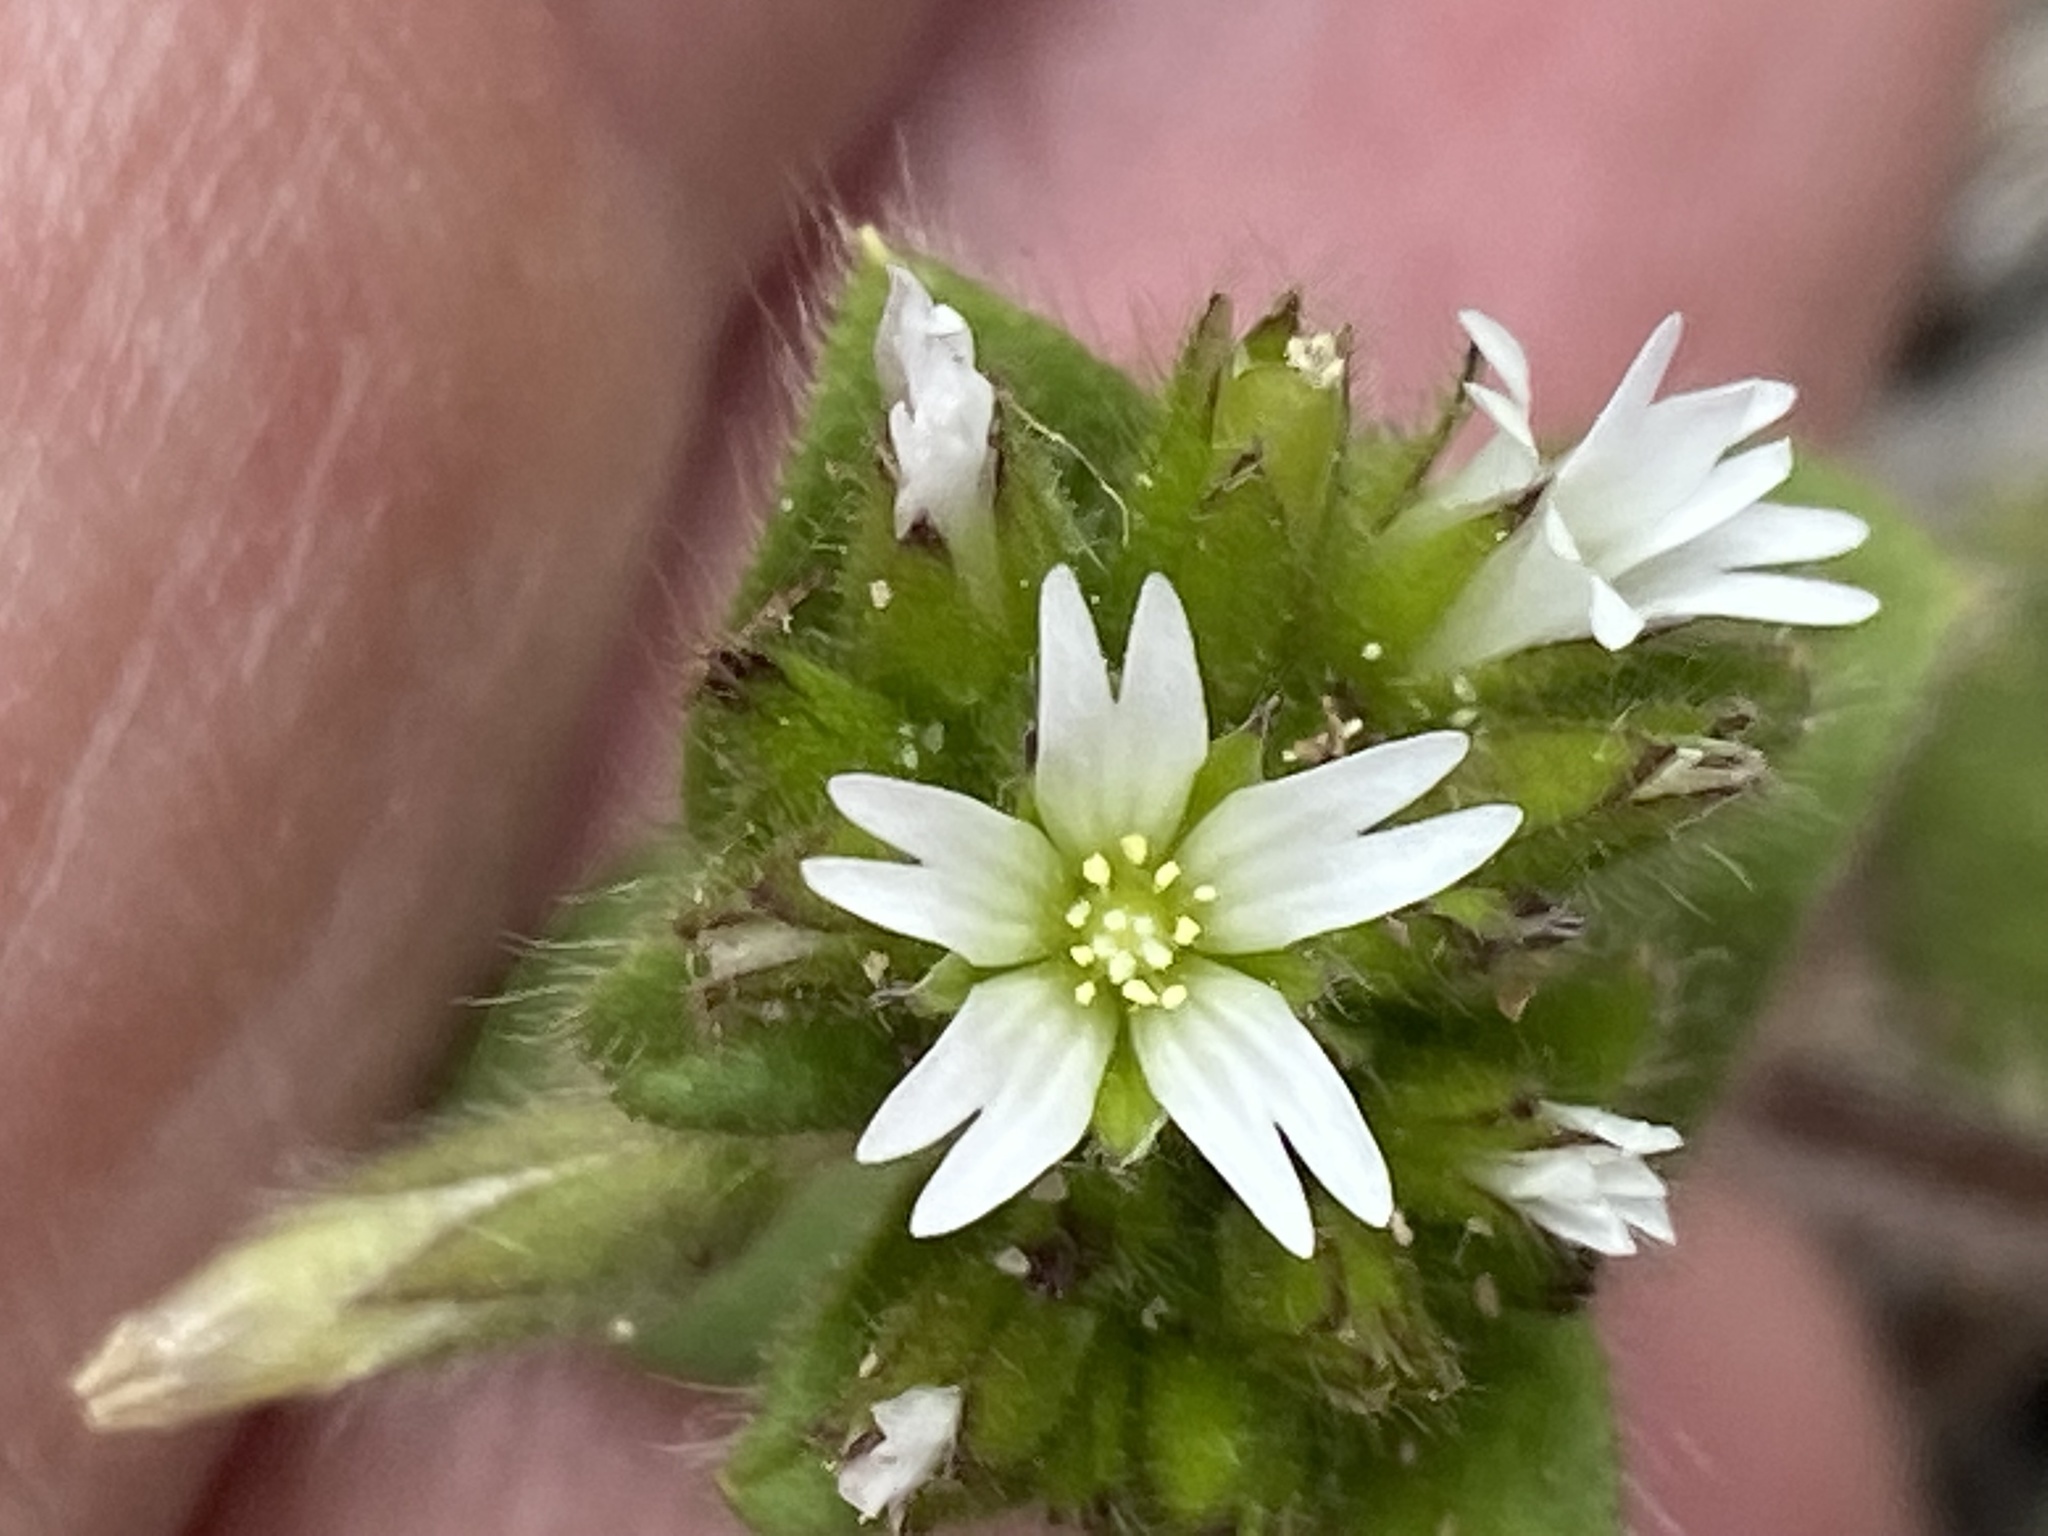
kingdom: Plantae
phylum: Tracheophyta
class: Magnoliopsida
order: Caryophyllales
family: Caryophyllaceae
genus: Cerastium
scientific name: Cerastium glomeratum
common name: Sticky chickweed
